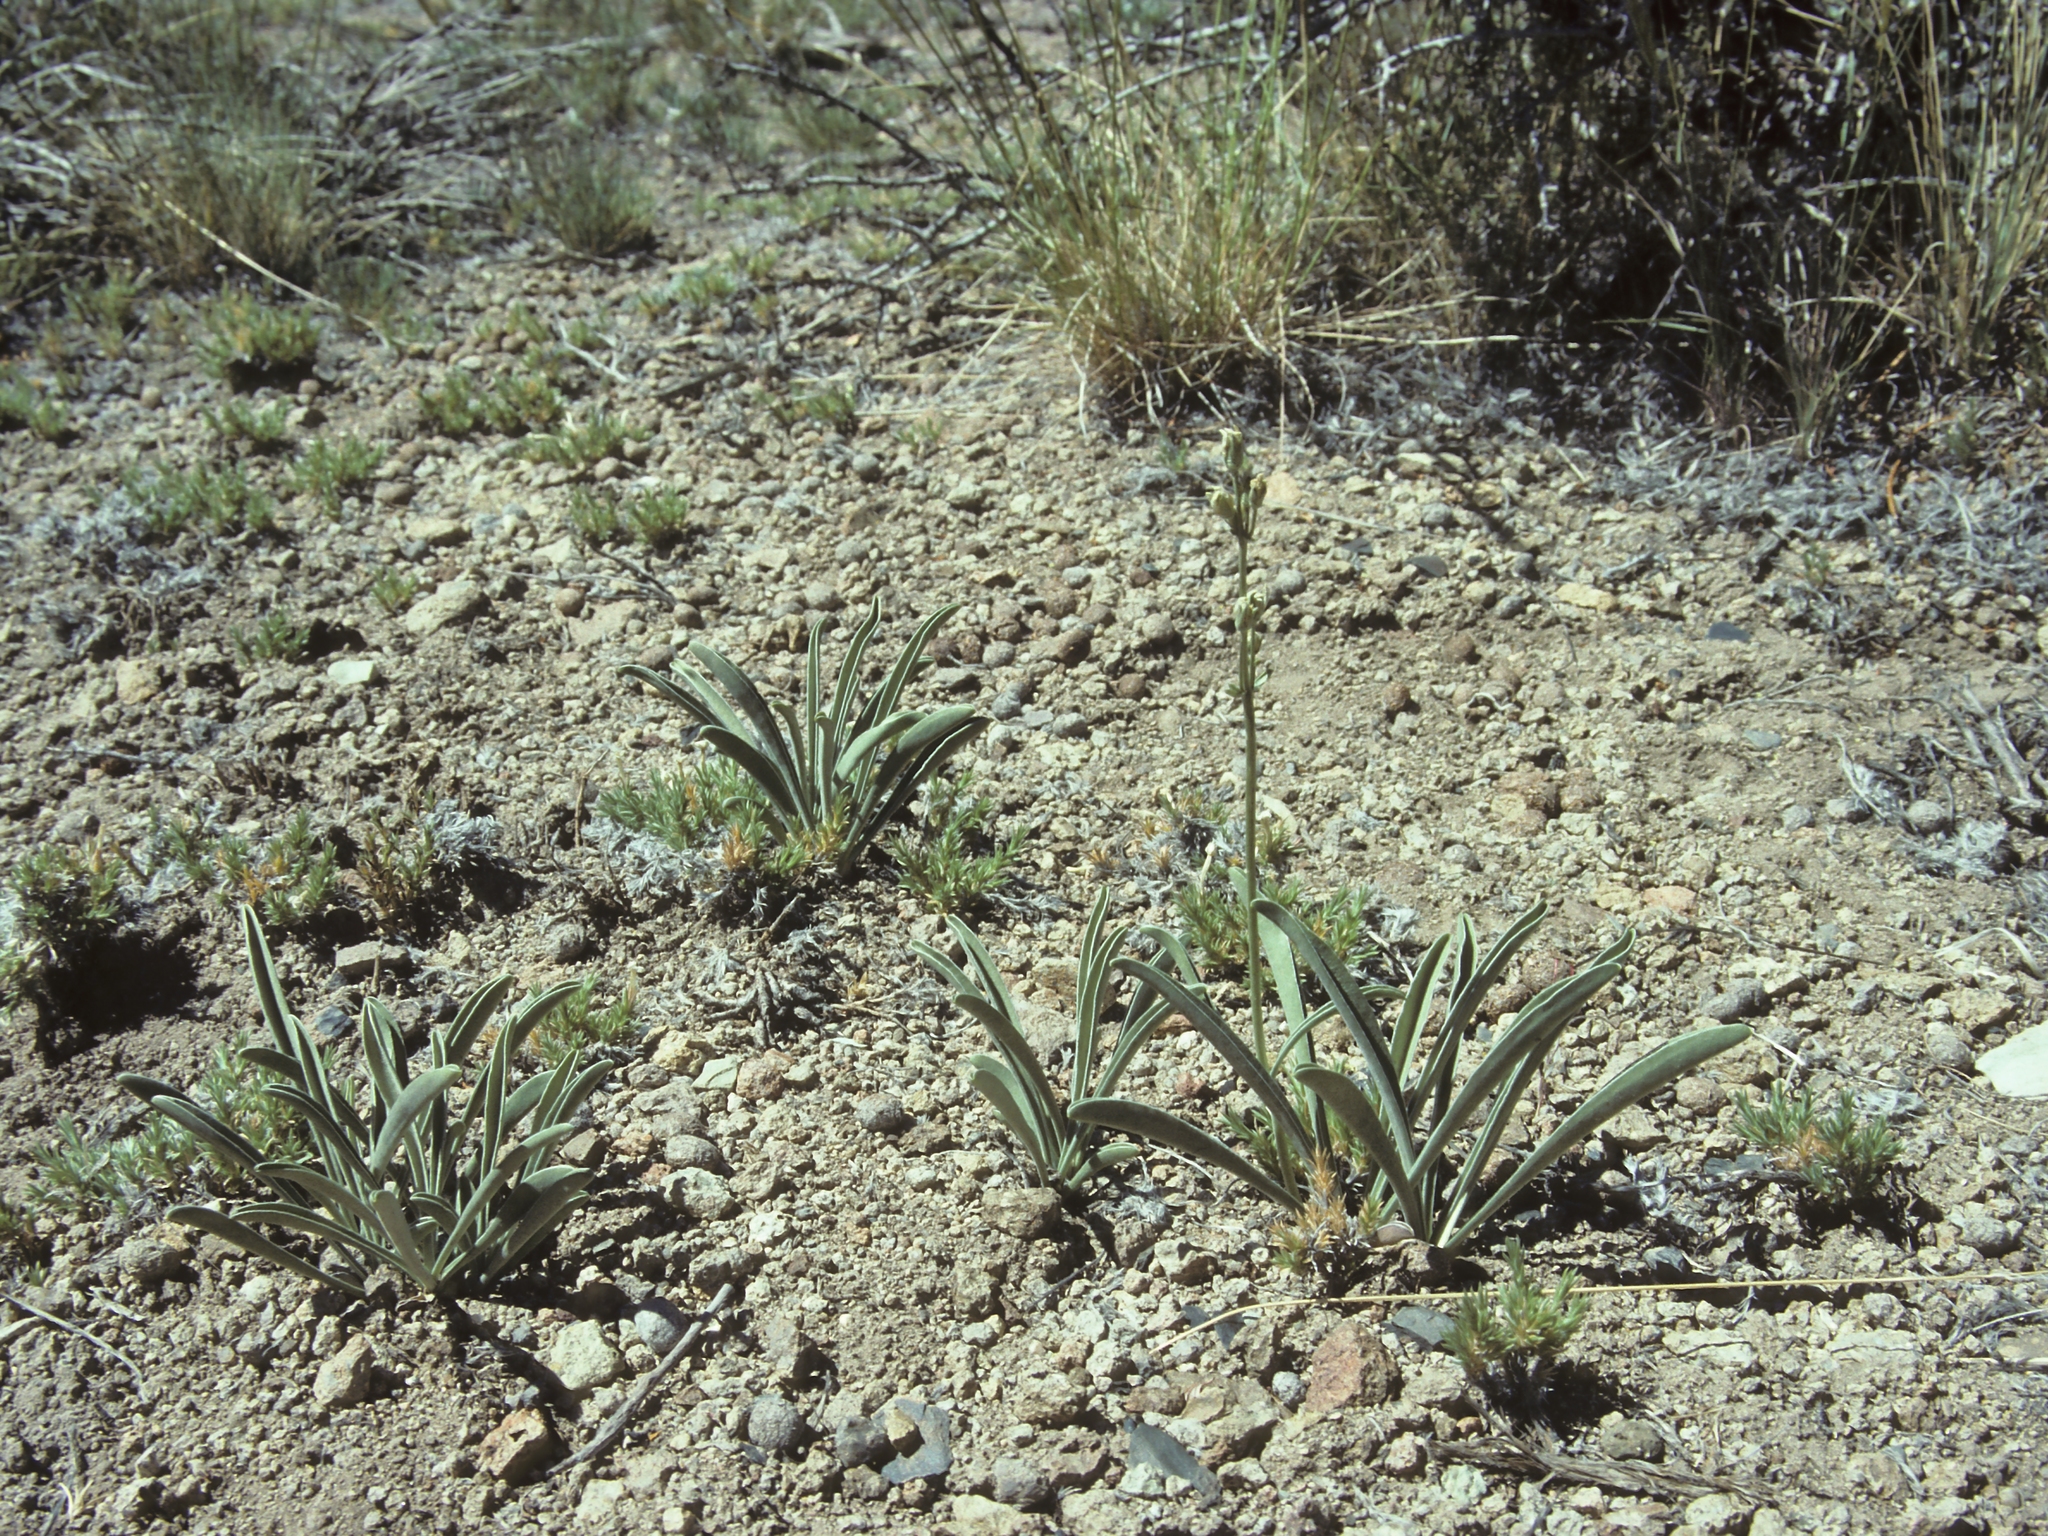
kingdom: Plantae
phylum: Tracheophyta
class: Magnoliopsida
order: Gentianales
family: Gentianaceae
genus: Frasera
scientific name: Frasera albicaulis
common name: Cusick's frasera
